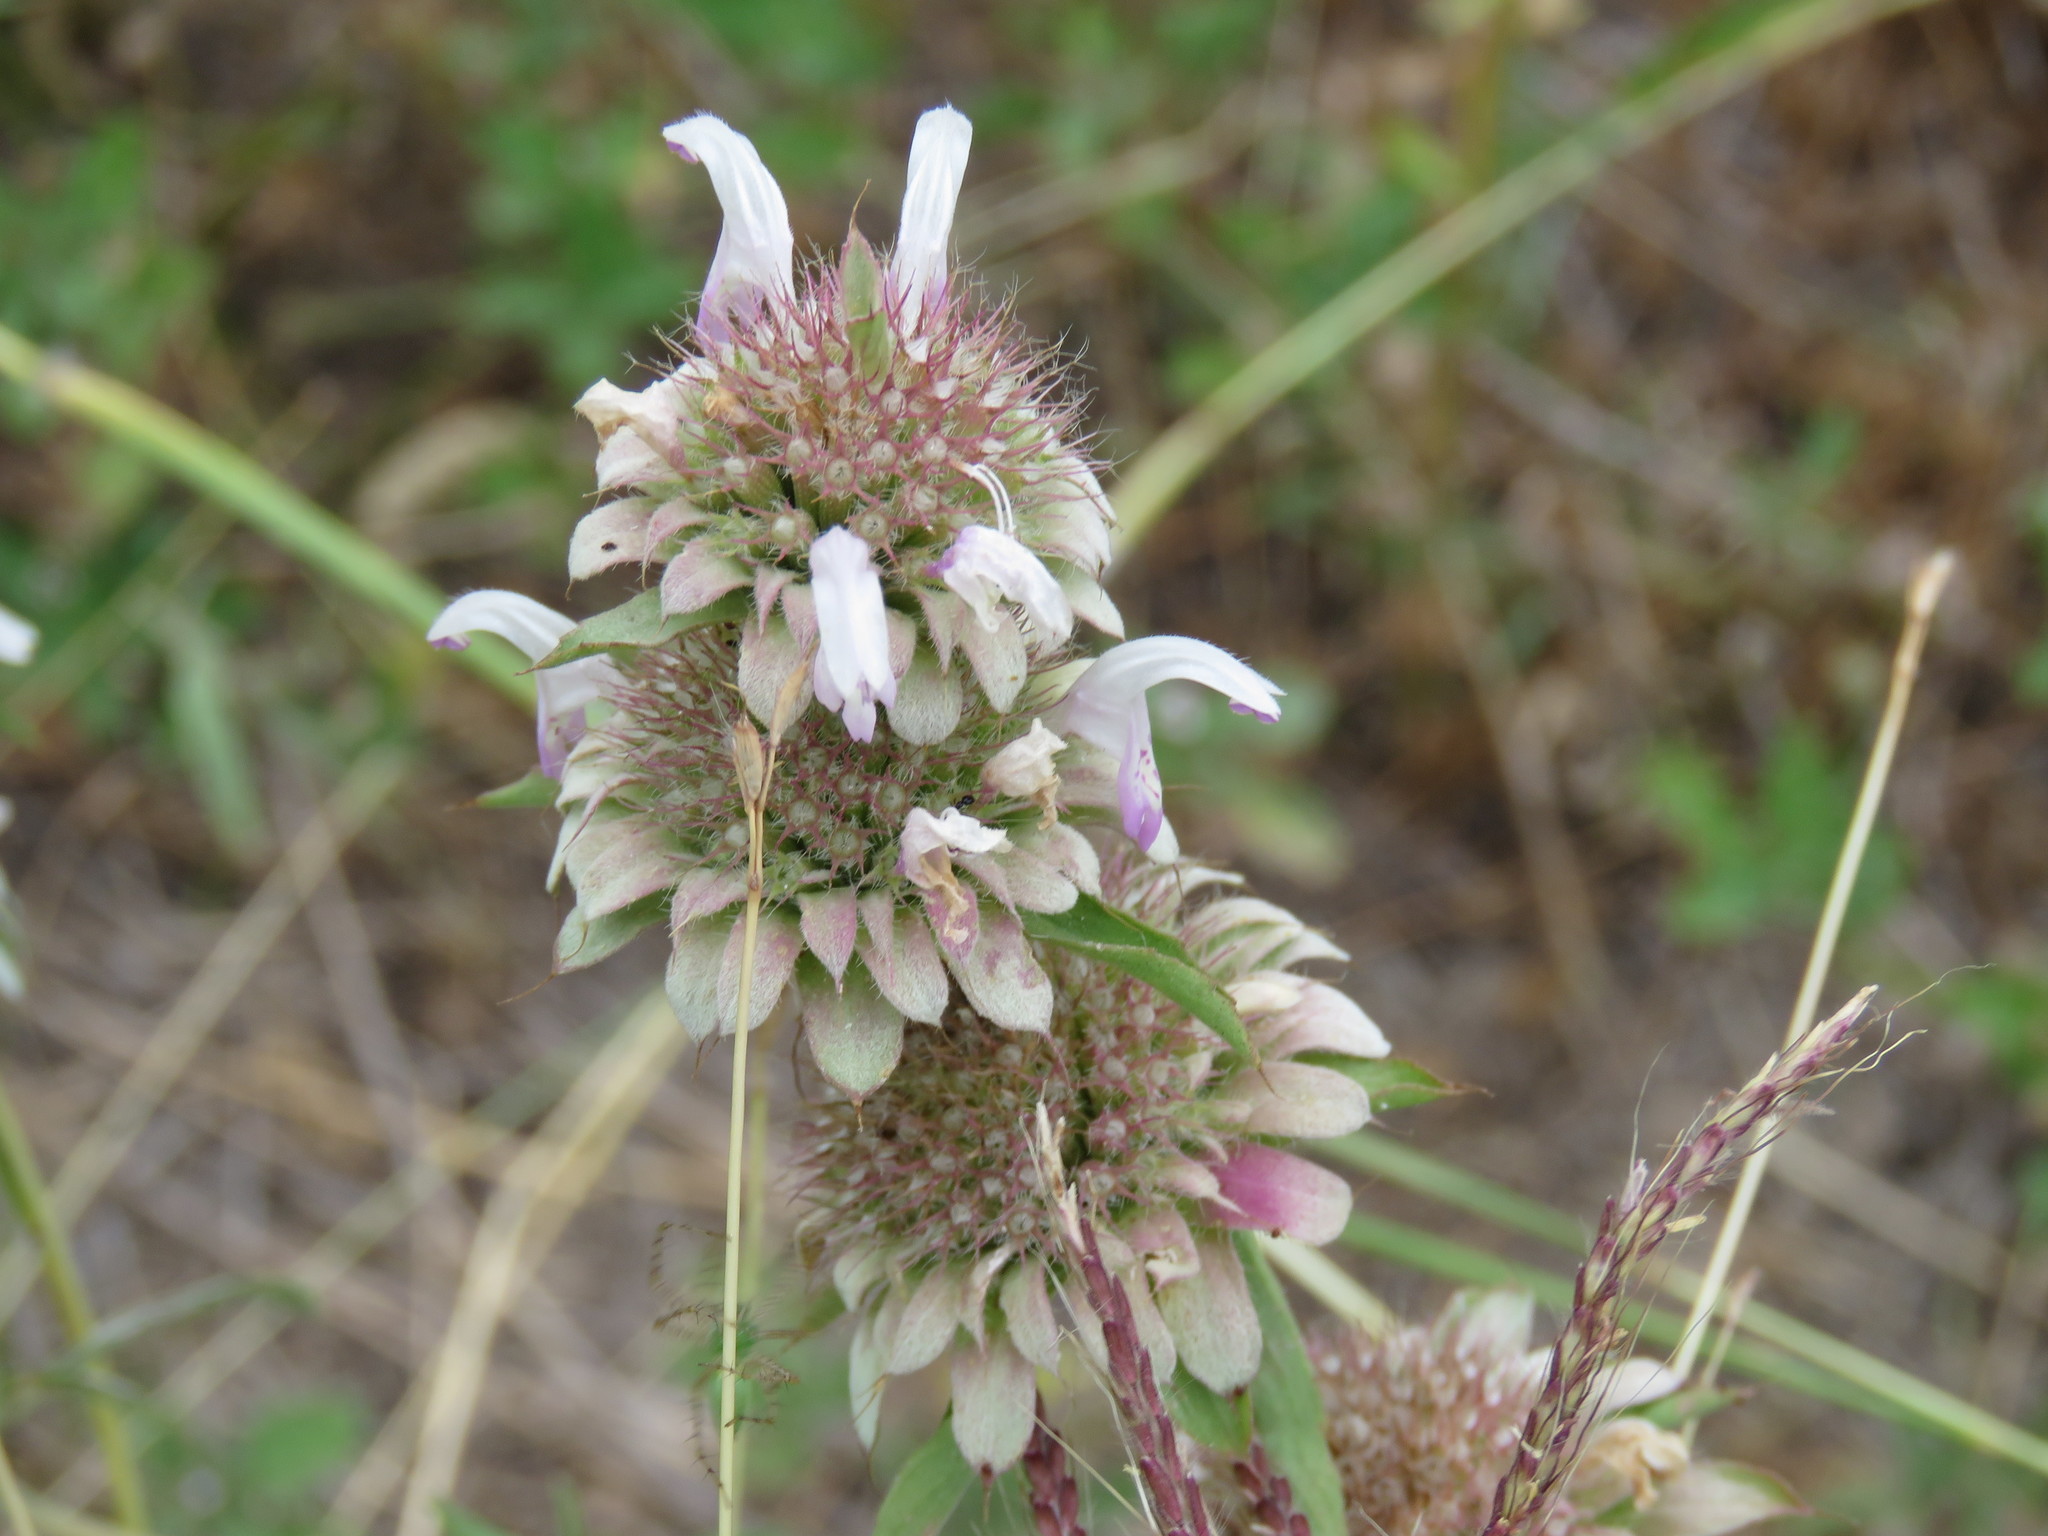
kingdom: Plantae
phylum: Tracheophyta
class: Magnoliopsida
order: Lamiales
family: Lamiaceae
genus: Monarda
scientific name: Monarda citriodora
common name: Lemon beebalm
